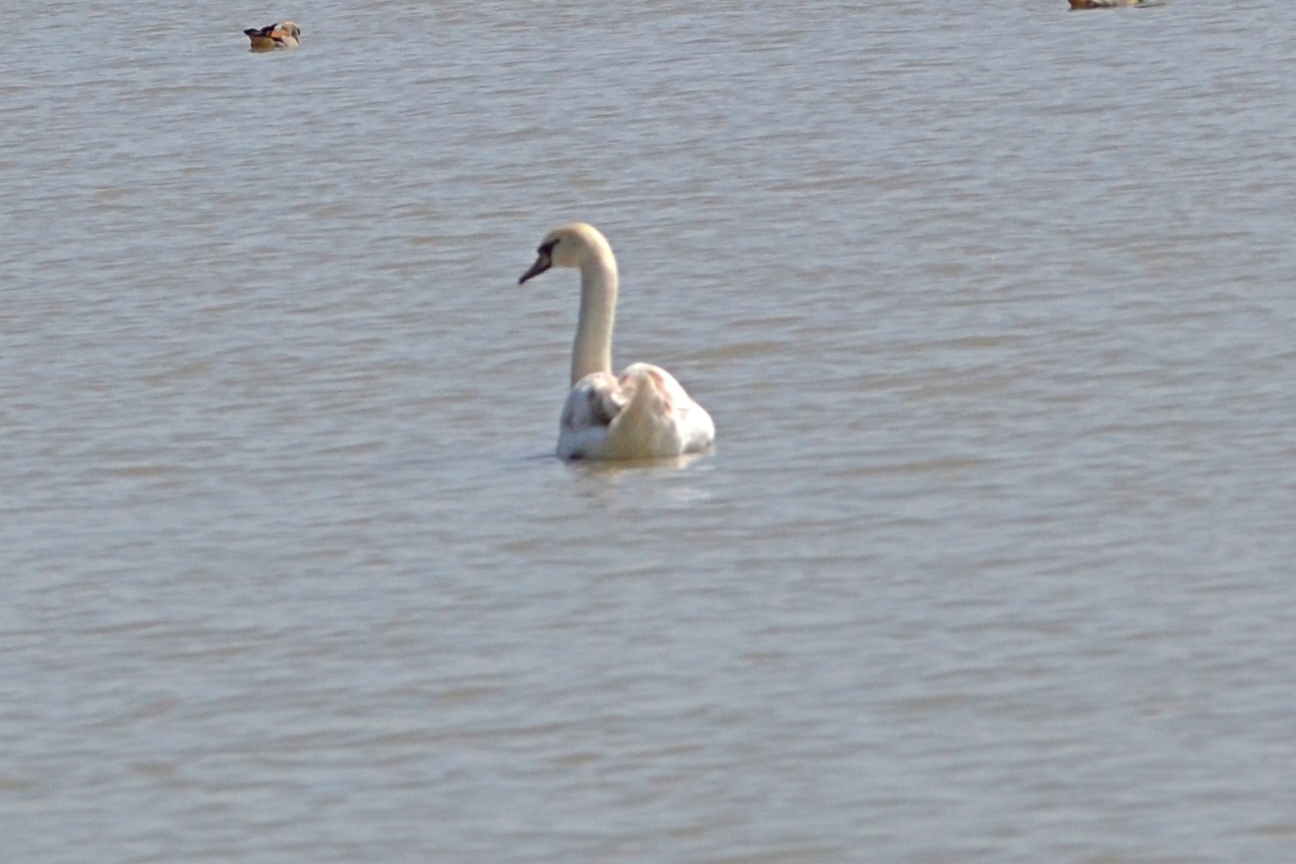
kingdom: Animalia
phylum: Chordata
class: Aves
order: Anseriformes
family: Anatidae
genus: Cygnus
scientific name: Cygnus olor
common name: Mute swan
